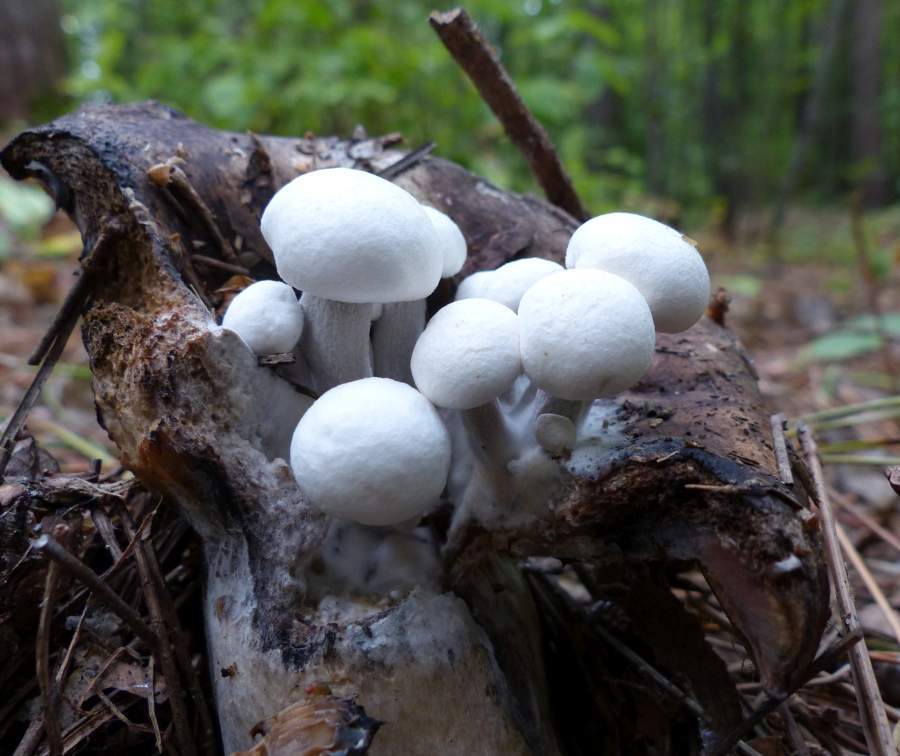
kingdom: Fungi
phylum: Basidiomycota
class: Agaricomycetes
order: Agaricales
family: Lyophyllaceae
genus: Asterophora
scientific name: Asterophora lycoperdoides
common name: Pick-a-back toadstool
